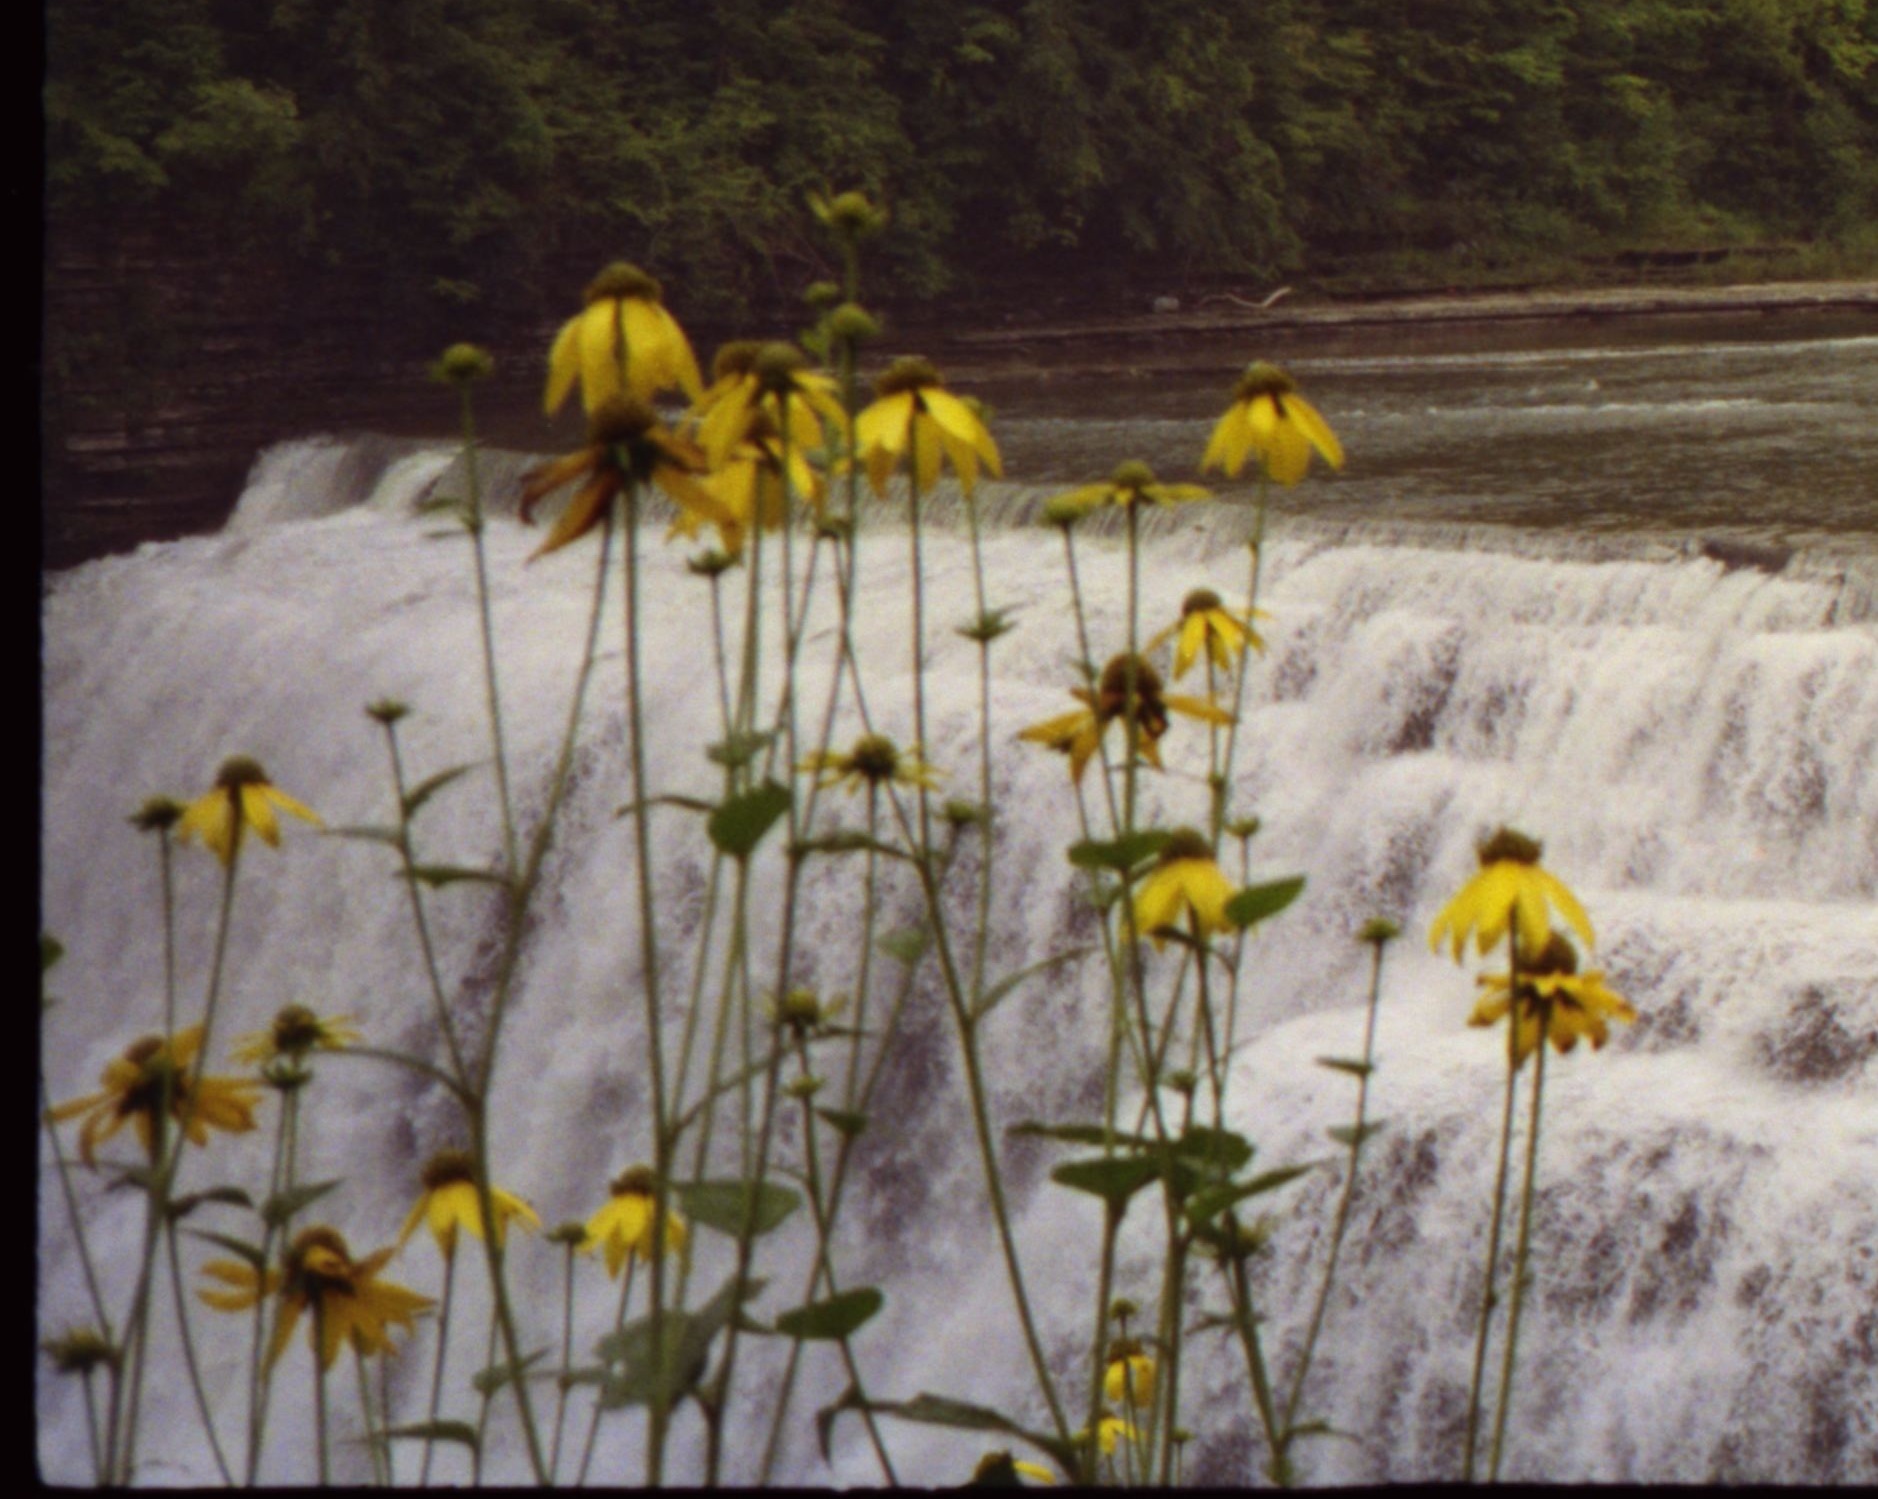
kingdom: Plantae
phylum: Tracheophyta
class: Magnoliopsida
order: Asterales
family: Asteraceae
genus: Rudbeckia
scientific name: Rudbeckia laciniata
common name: Coneflower
